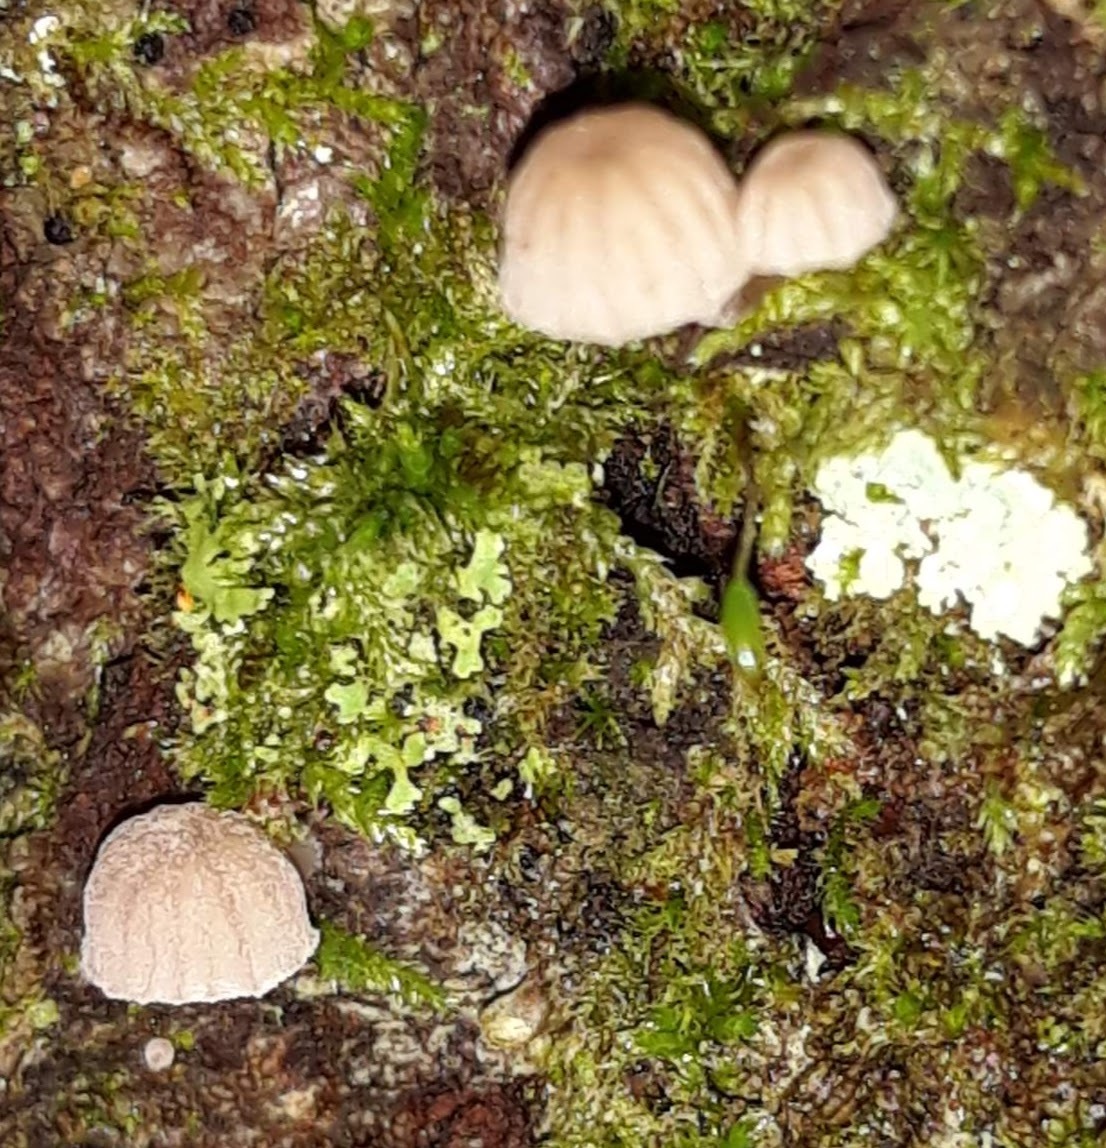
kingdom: Fungi
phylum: Basidiomycota
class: Agaricomycetes
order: Agaricales
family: Mycenaceae
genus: Mycena
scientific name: Mycena meliigena
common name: Mauve bonnet
